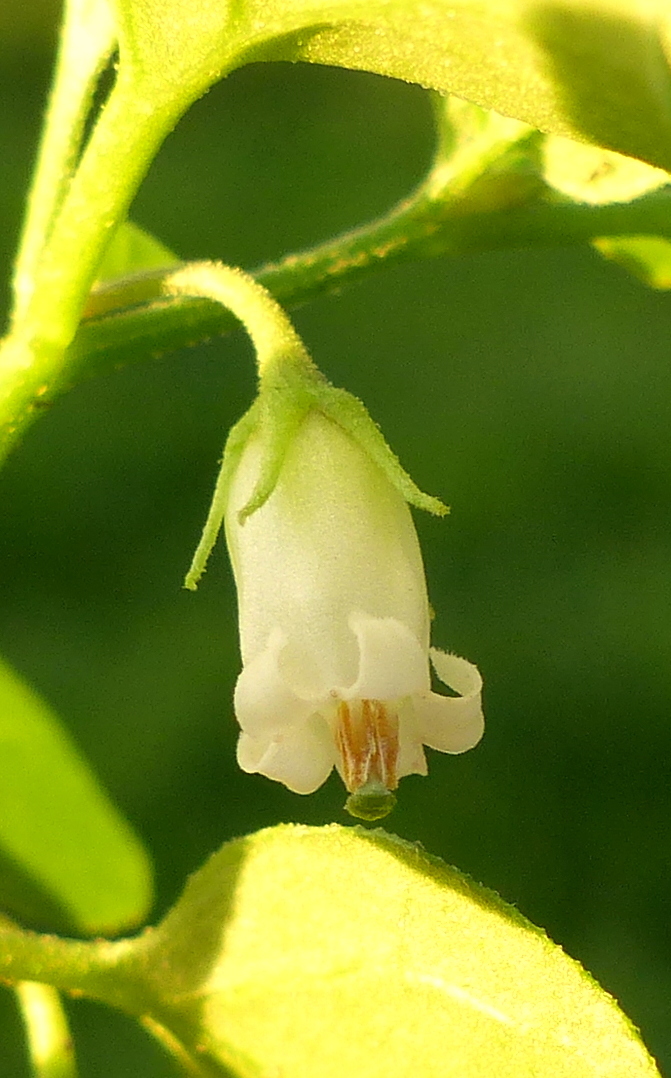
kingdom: Plantae
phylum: Tracheophyta
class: Magnoliopsida
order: Solanales
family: Solanaceae
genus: Salpichroa
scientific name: Salpichroa origanifolia
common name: Lily-of-the-valley-vine
